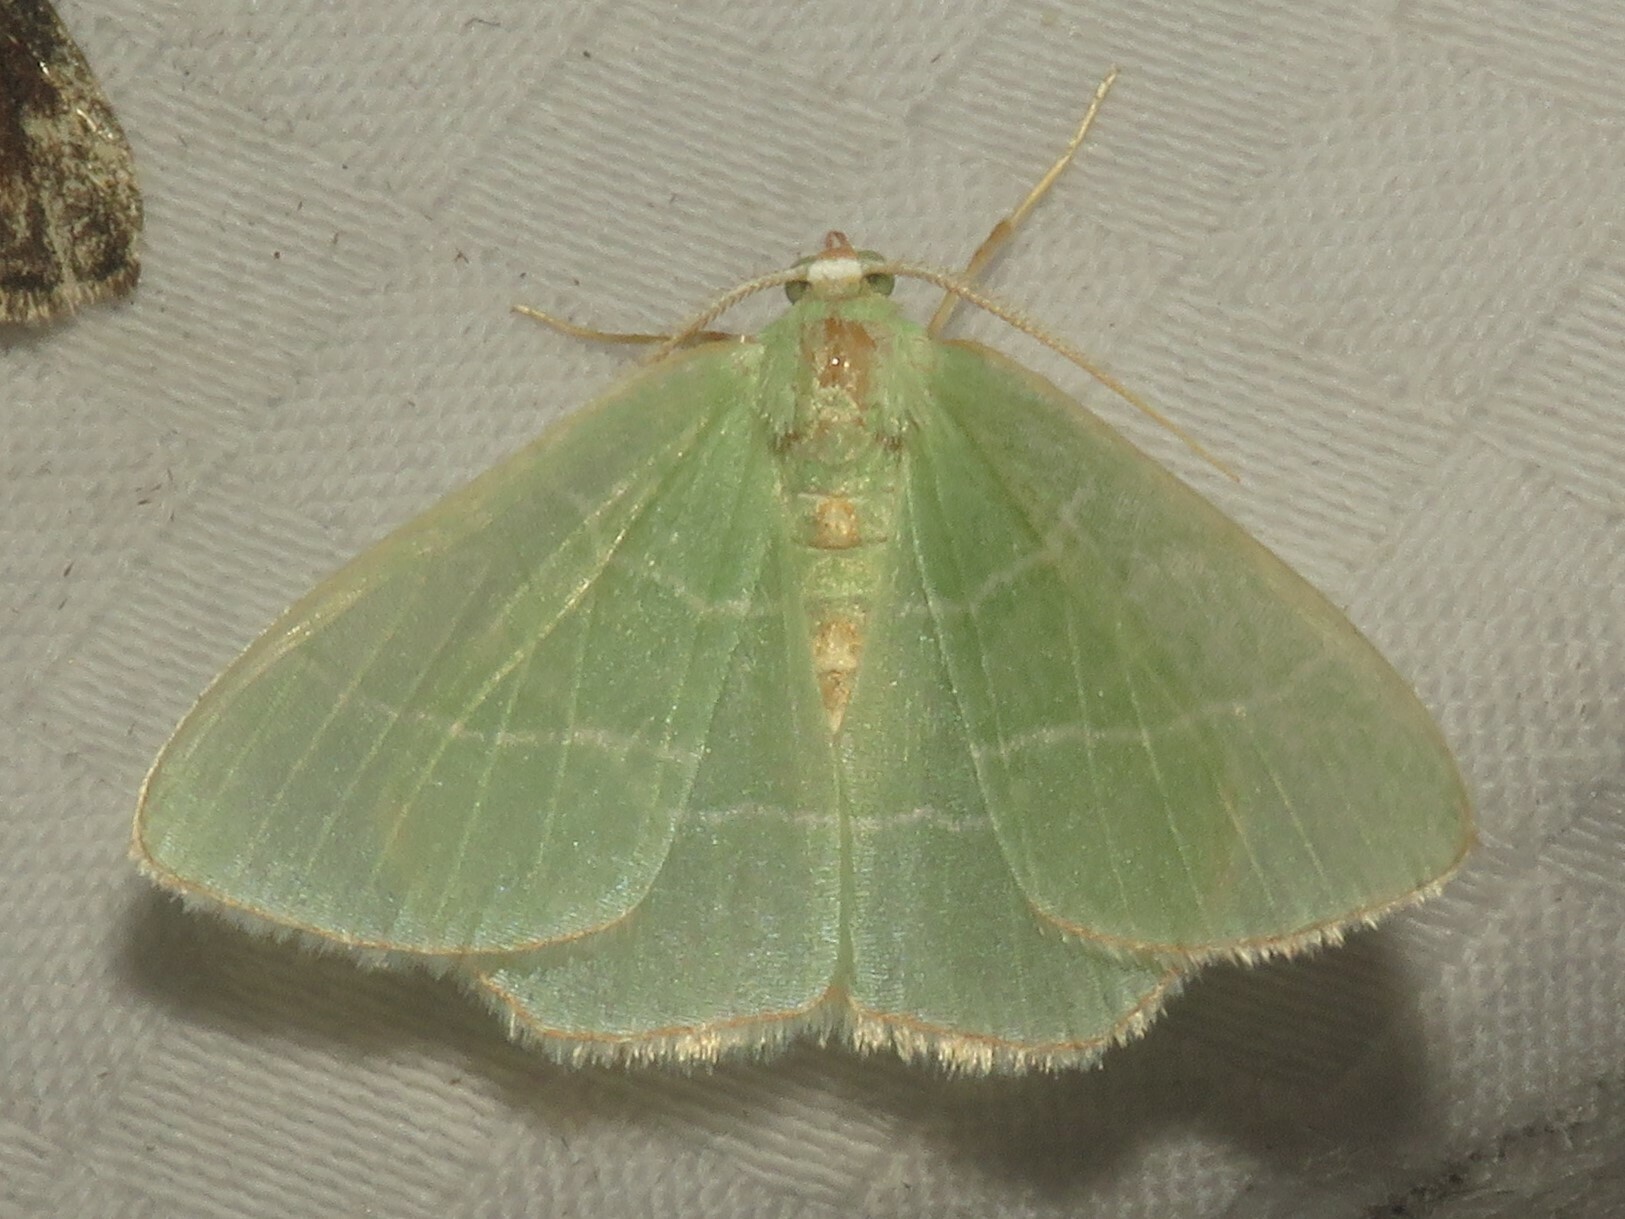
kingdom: Animalia
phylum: Arthropoda
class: Insecta
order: Lepidoptera
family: Geometridae
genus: Nemoria
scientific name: Nemoria bistriaria
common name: Red-fringed emerald
